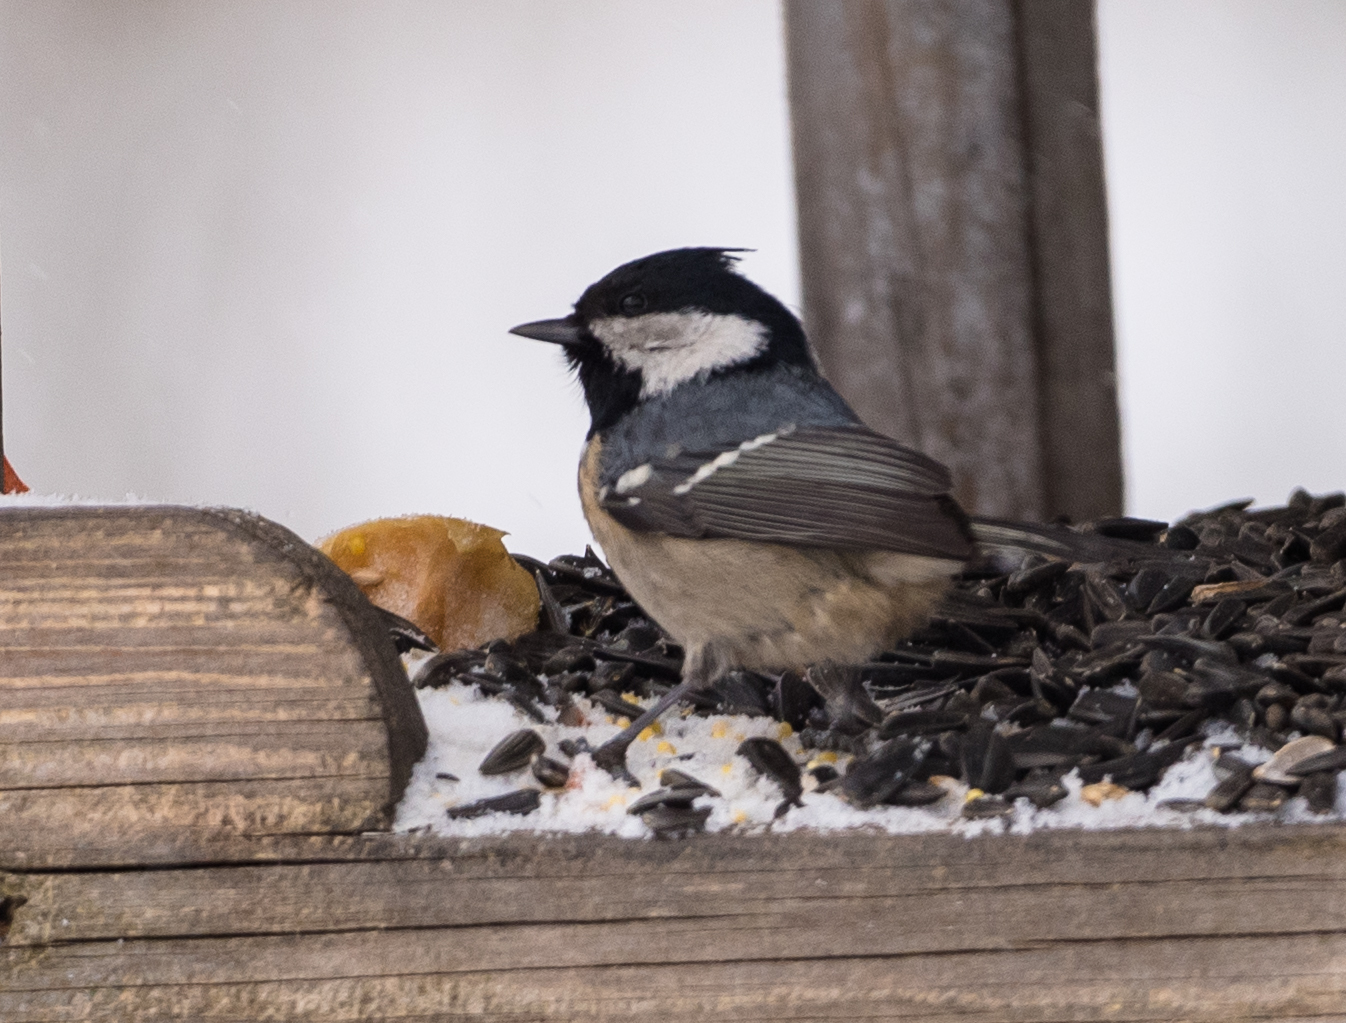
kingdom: Animalia
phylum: Chordata
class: Aves
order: Passeriformes
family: Paridae
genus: Periparus
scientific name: Periparus ater
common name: Coal tit
